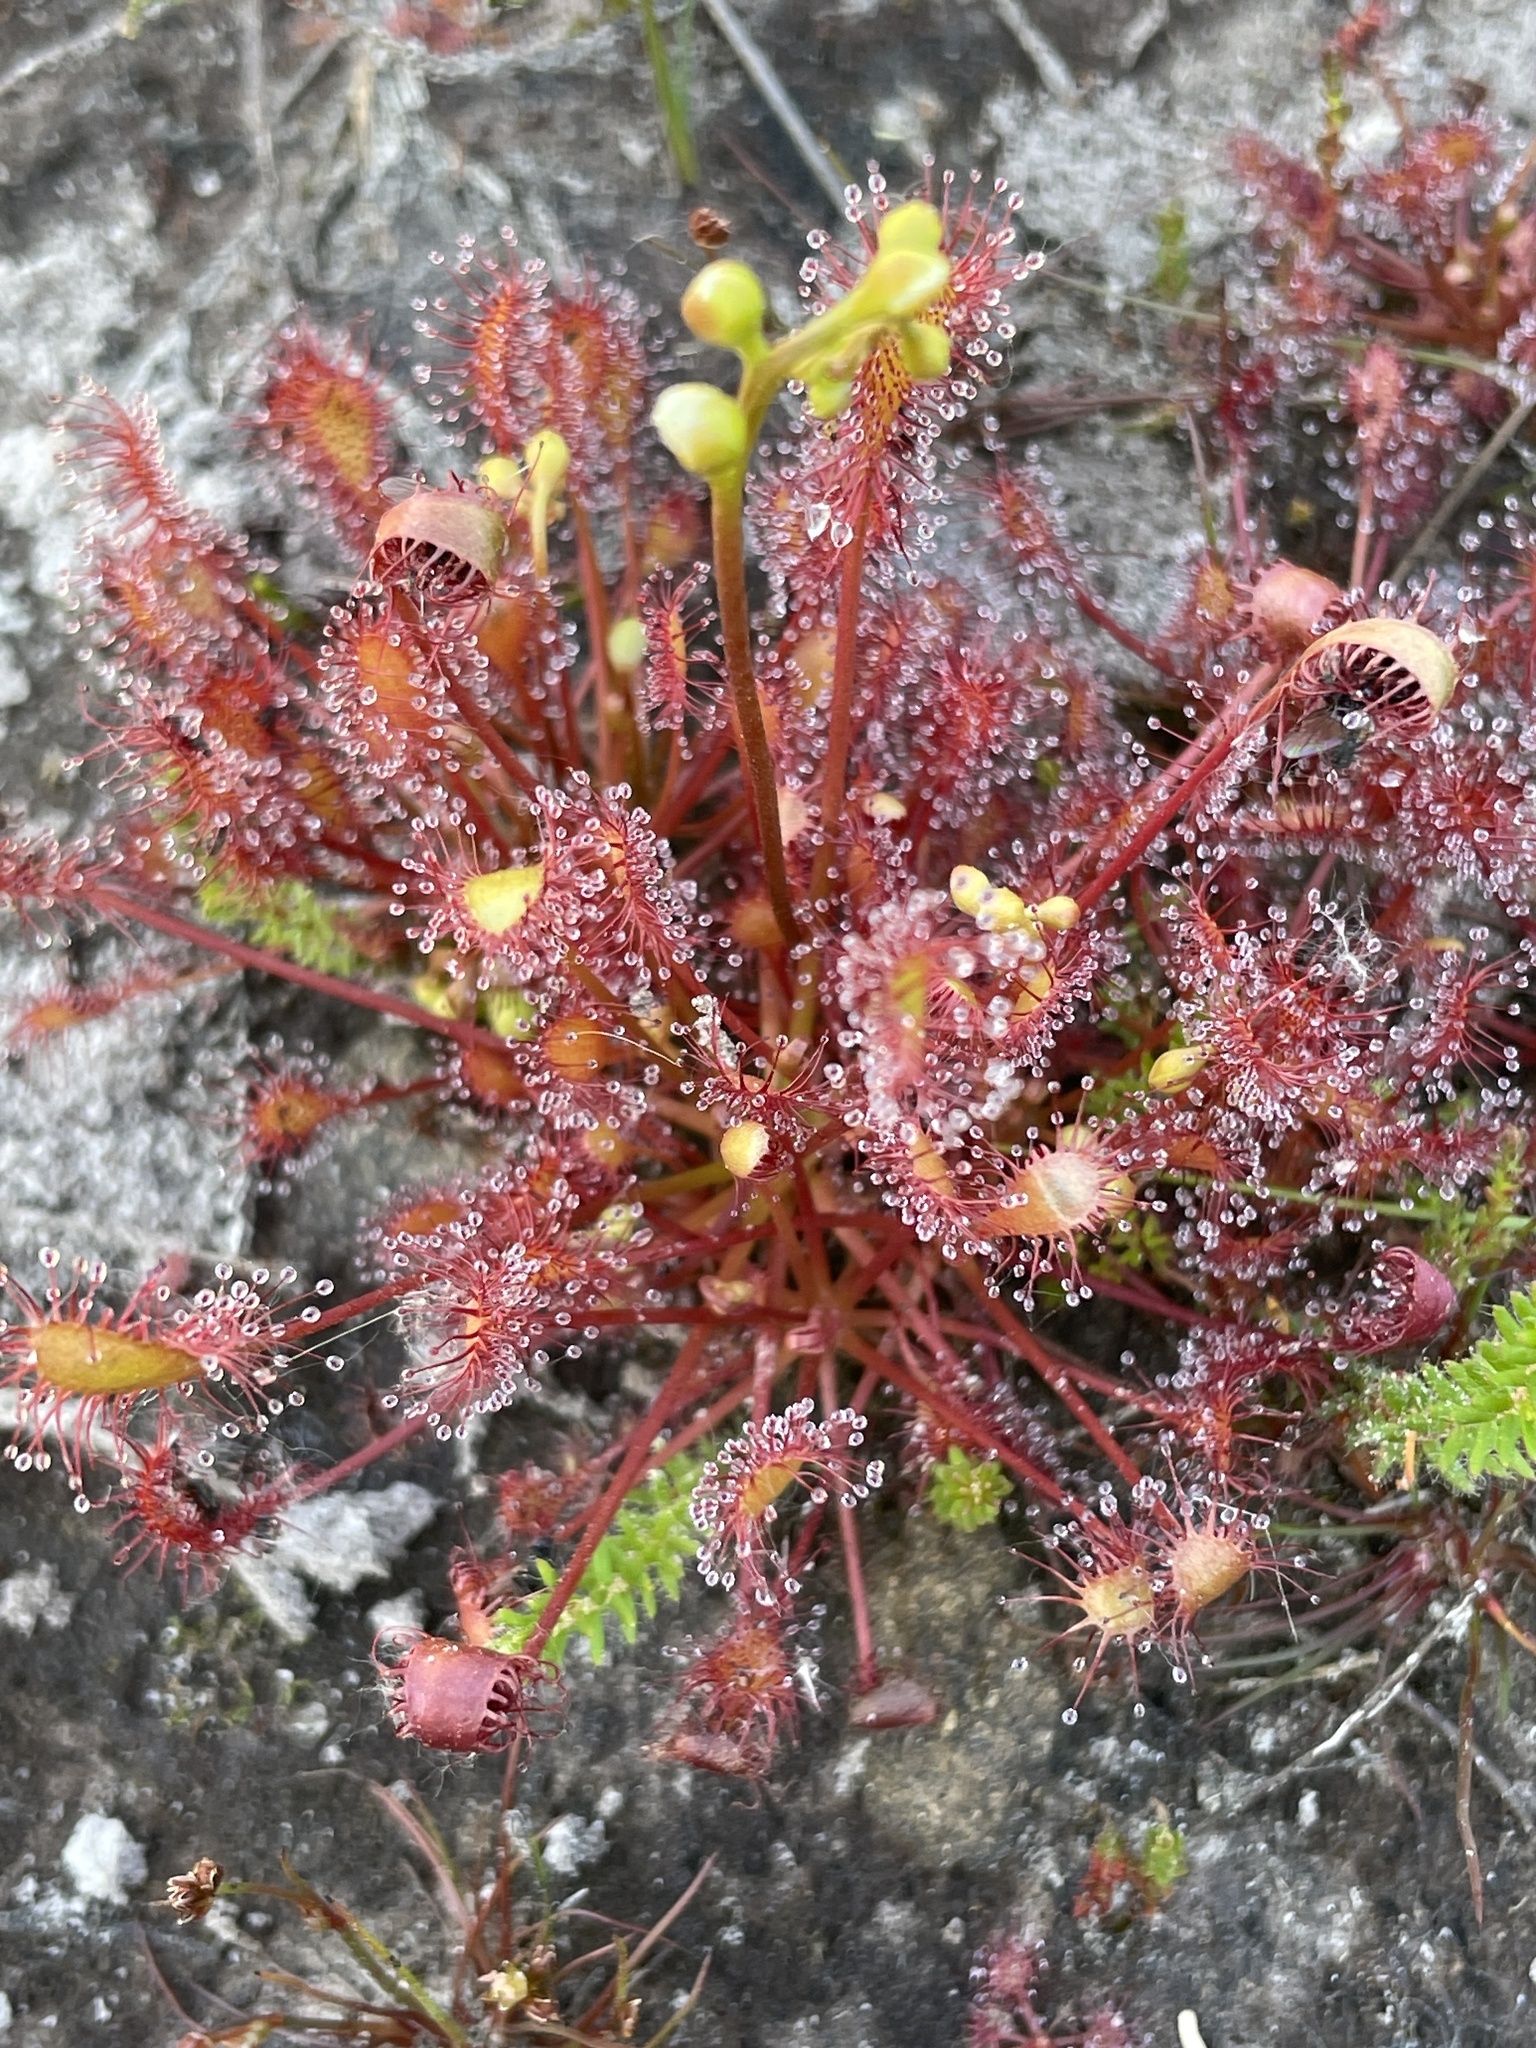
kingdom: Plantae
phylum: Tracheophyta
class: Magnoliopsida
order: Caryophyllales
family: Droseraceae
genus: Drosera
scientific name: Drosera intermedia
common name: Oblong-leaved sundew
